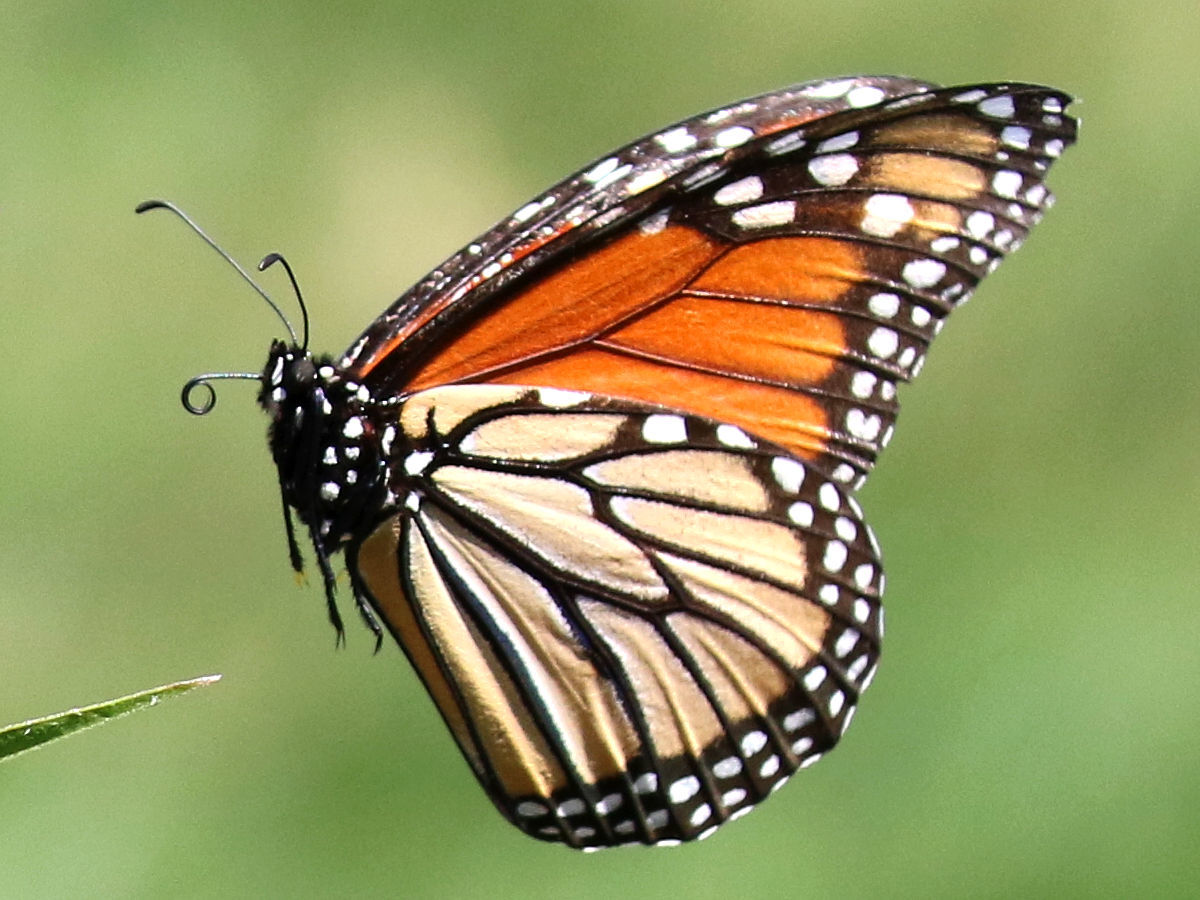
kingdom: Animalia
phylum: Arthropoda
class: Insecta
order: Lepidoptera
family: Nymphalidae
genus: Danaus
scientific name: Danaus plexippus
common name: Monarch
